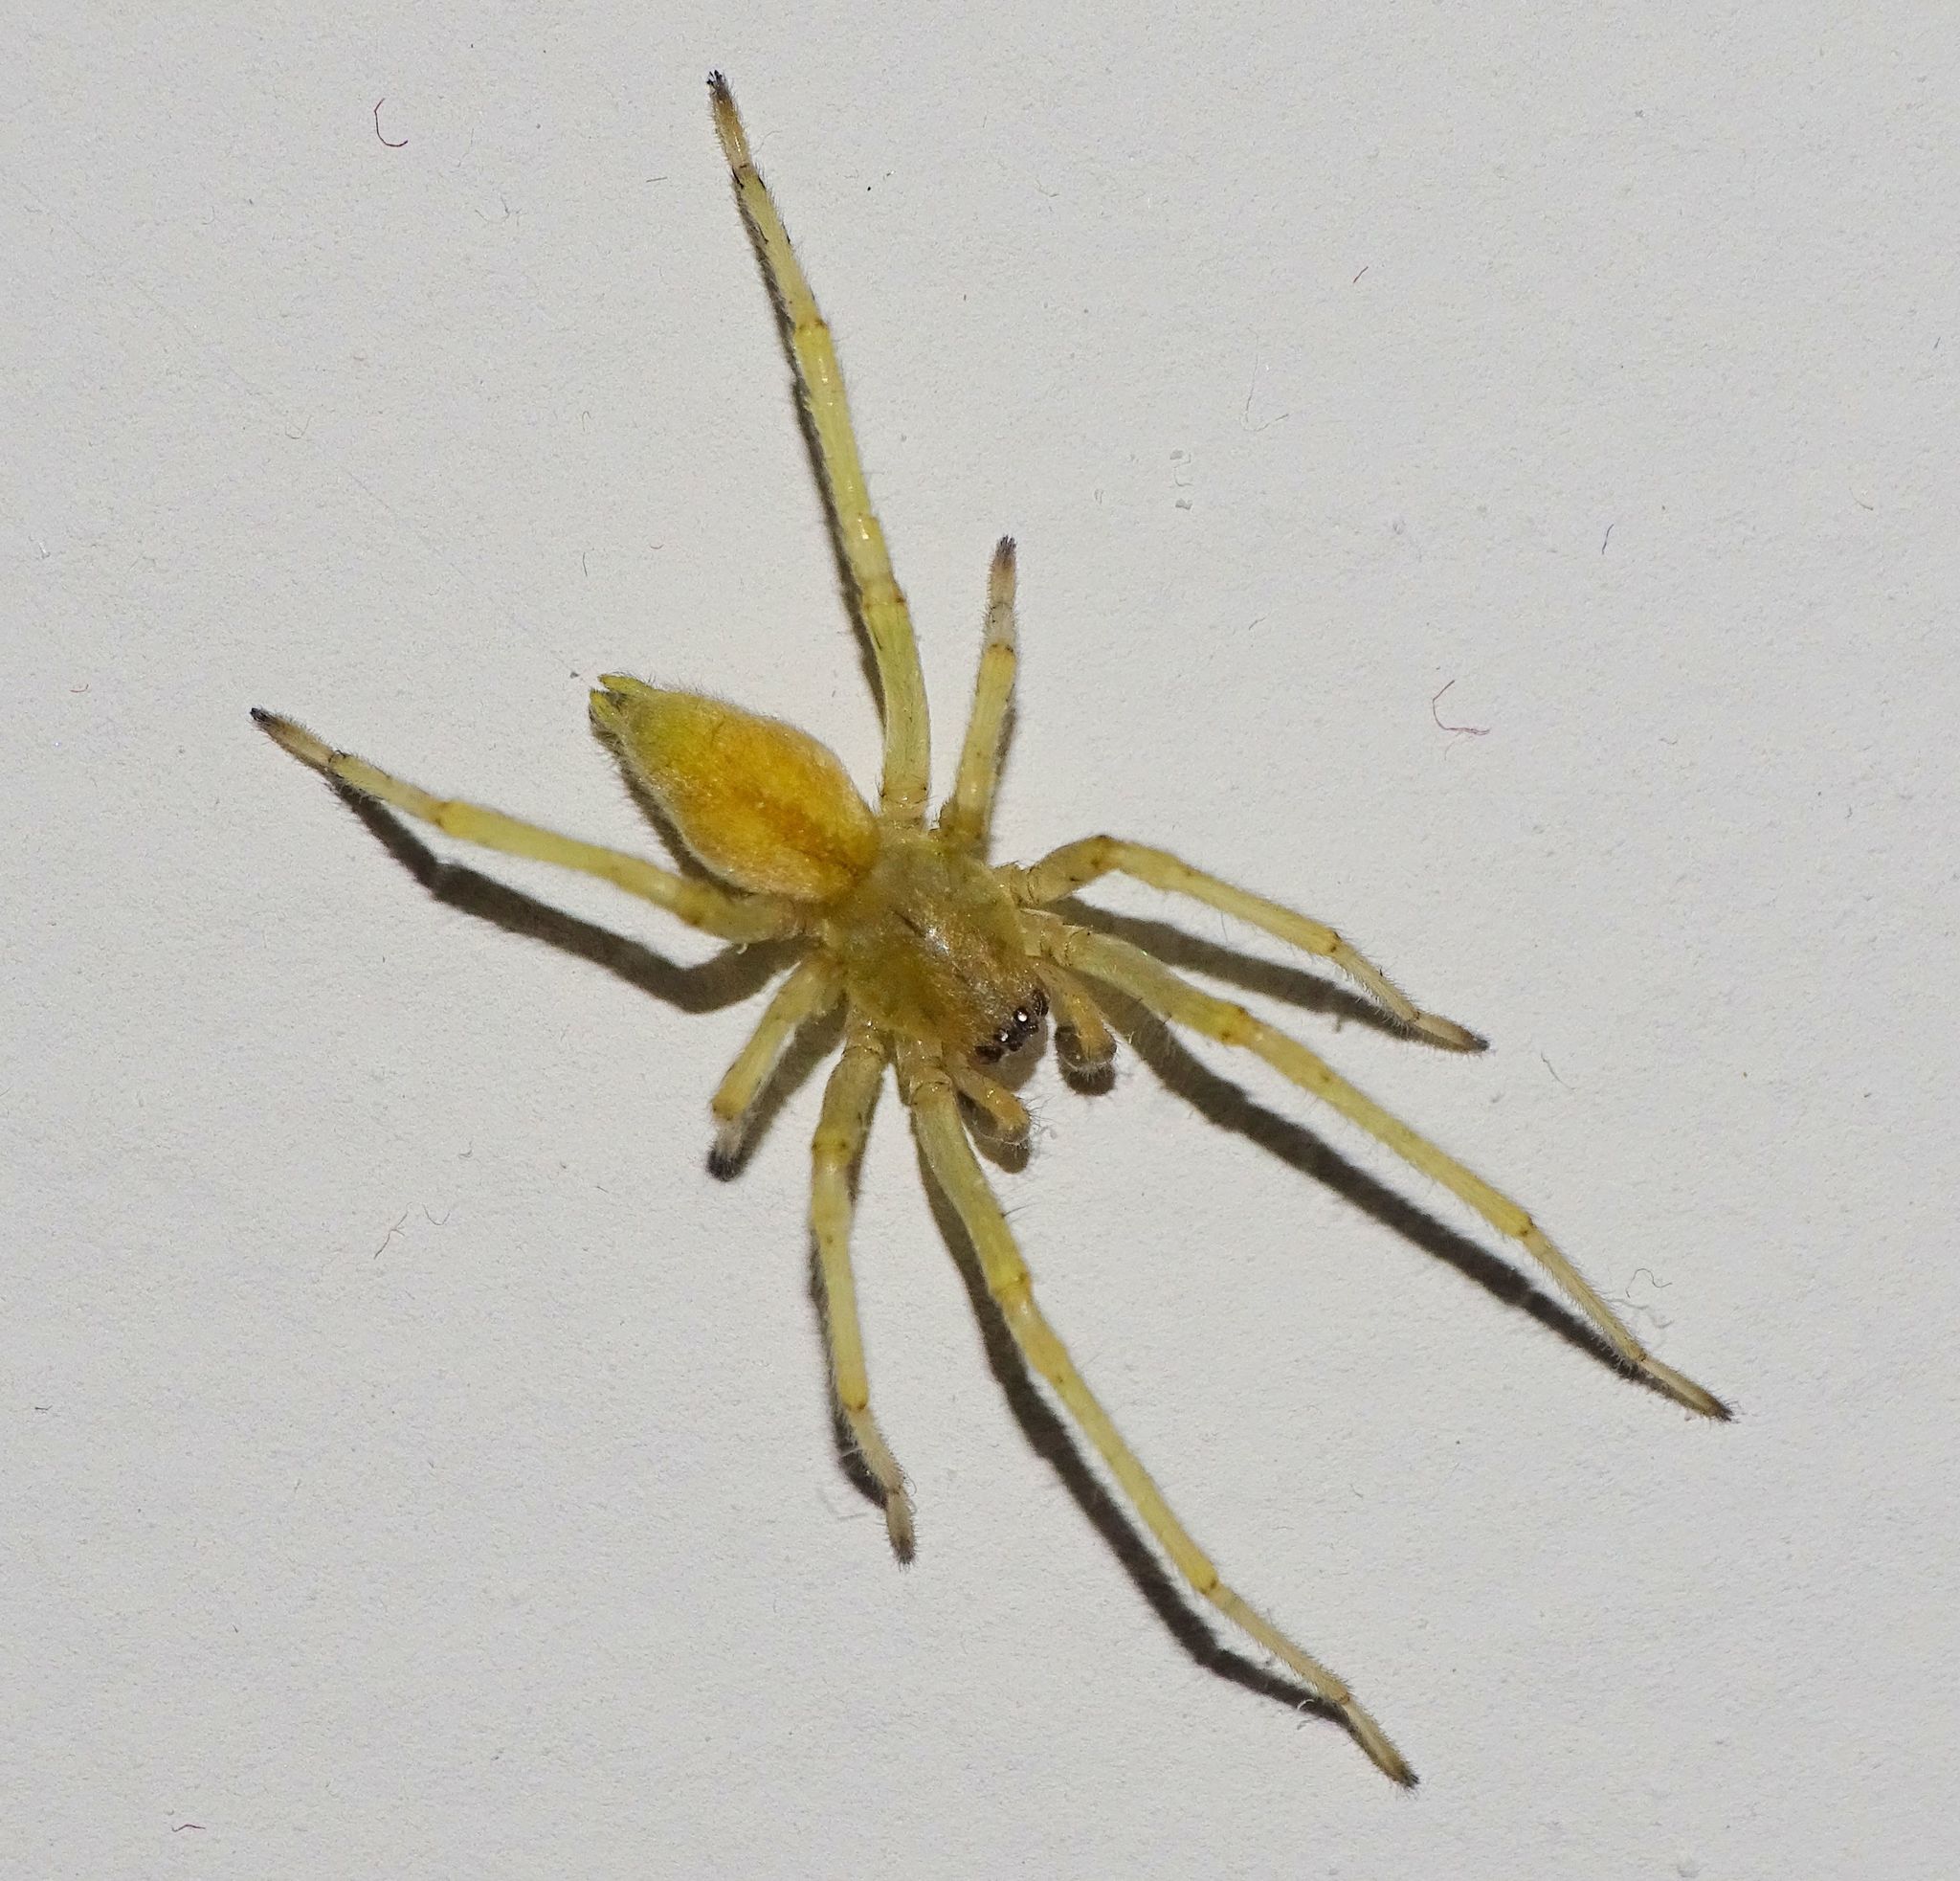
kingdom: Animalia
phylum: Arthropoda
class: Arachnida
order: Araneae
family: Cheiracanthiidae
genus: Cheiracanthium
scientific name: Cheiracanthium mildei
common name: Northern yellow sac spider
